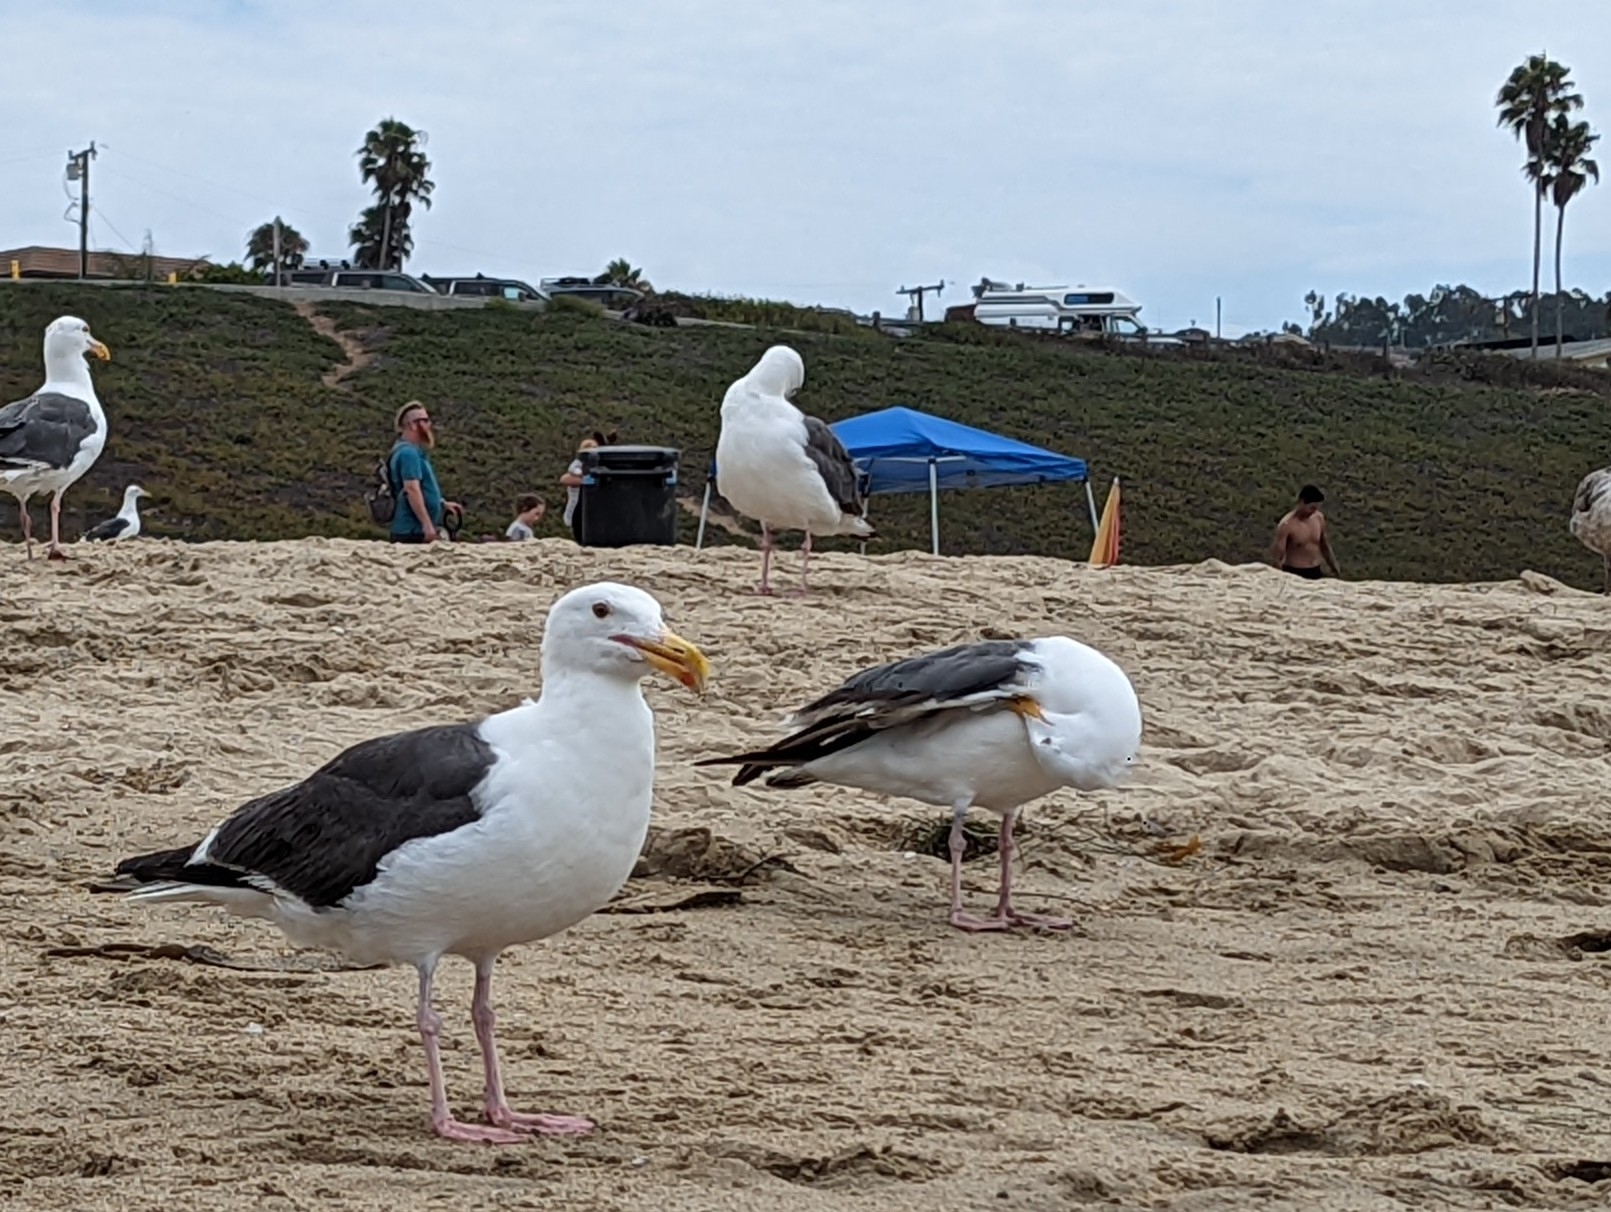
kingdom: Animalia
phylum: Chordata
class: Aves
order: Charadriiformes
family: Laridae
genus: Larus
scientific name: Larus occidentalis
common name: Western gull
